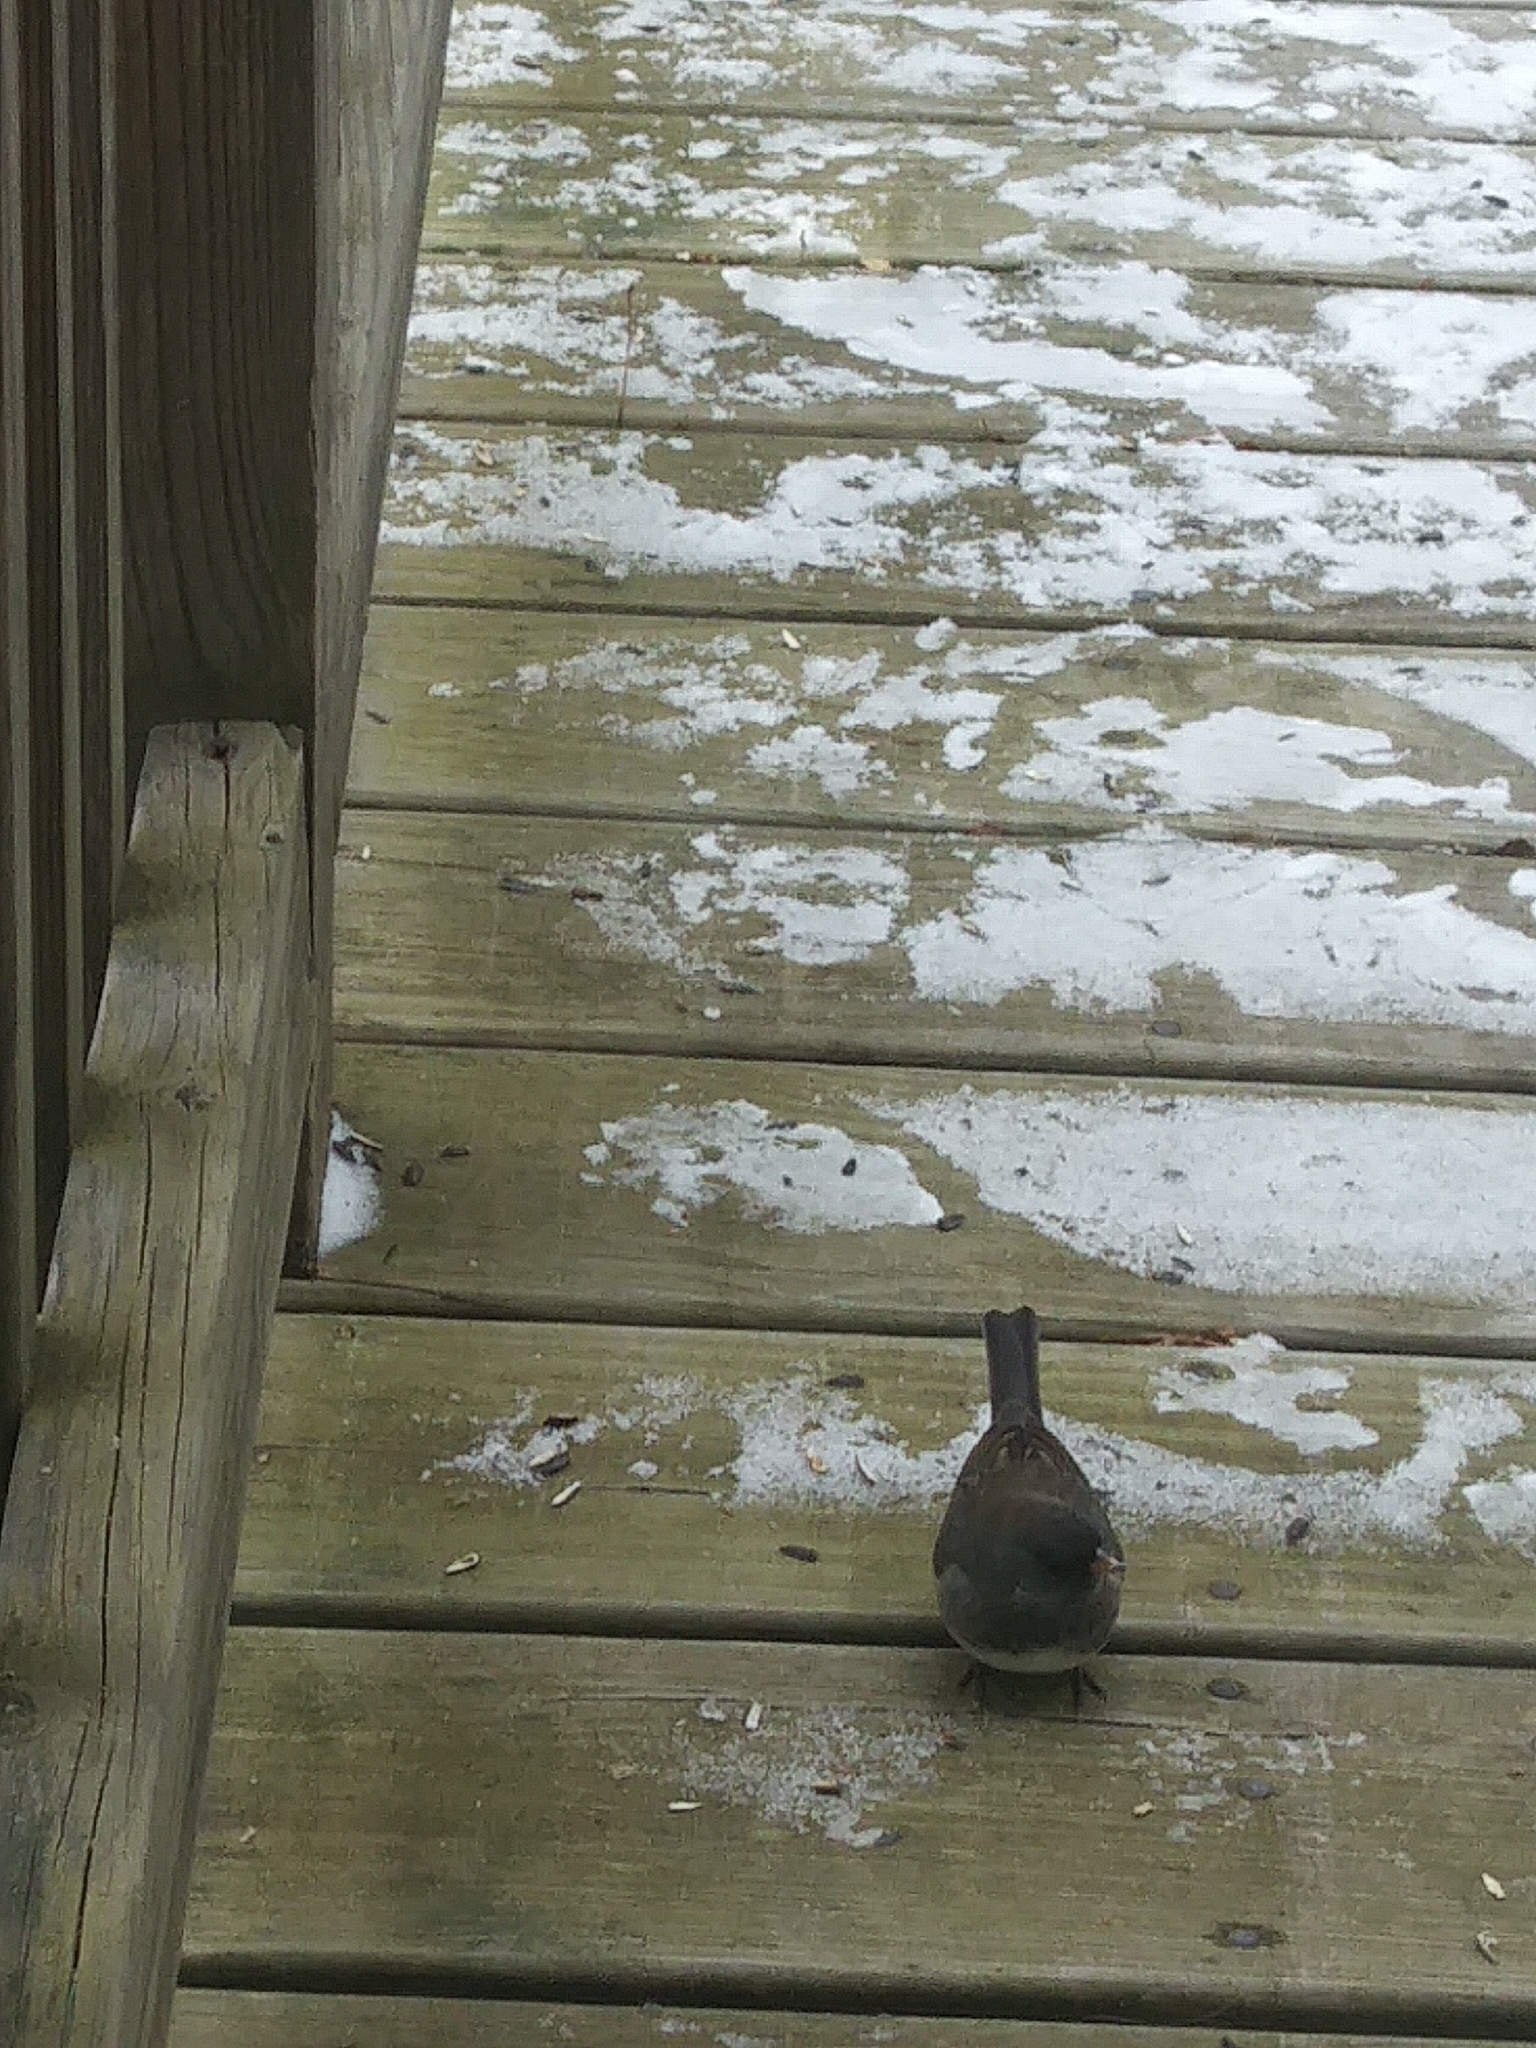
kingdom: Animalia
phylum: Chordata
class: Aves
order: Passeriformes
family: Passerellidae
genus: Junco
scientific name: Junco hyemalis
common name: Dark-eyed junco
